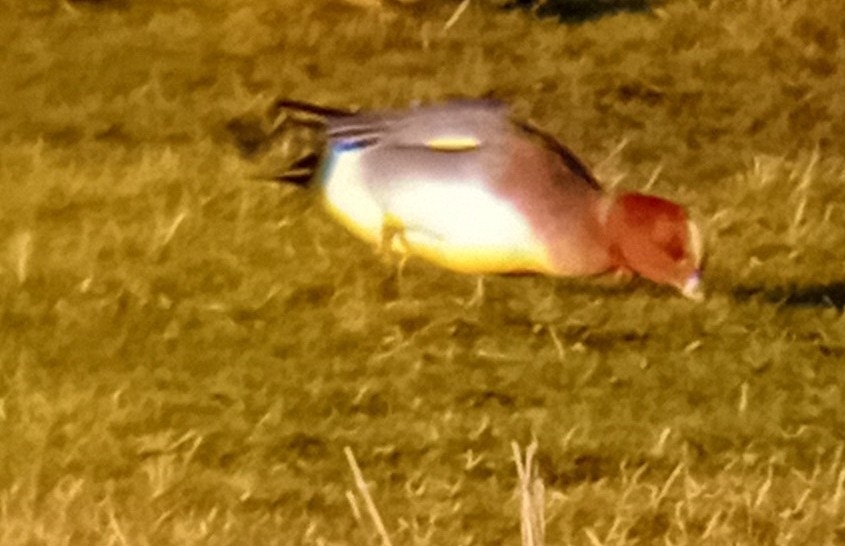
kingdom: Animalia
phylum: Chordata
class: Aves
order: Anseriformes
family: Anatidae
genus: Mareca
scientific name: Mareca penelope
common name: Eurasian wigeon
